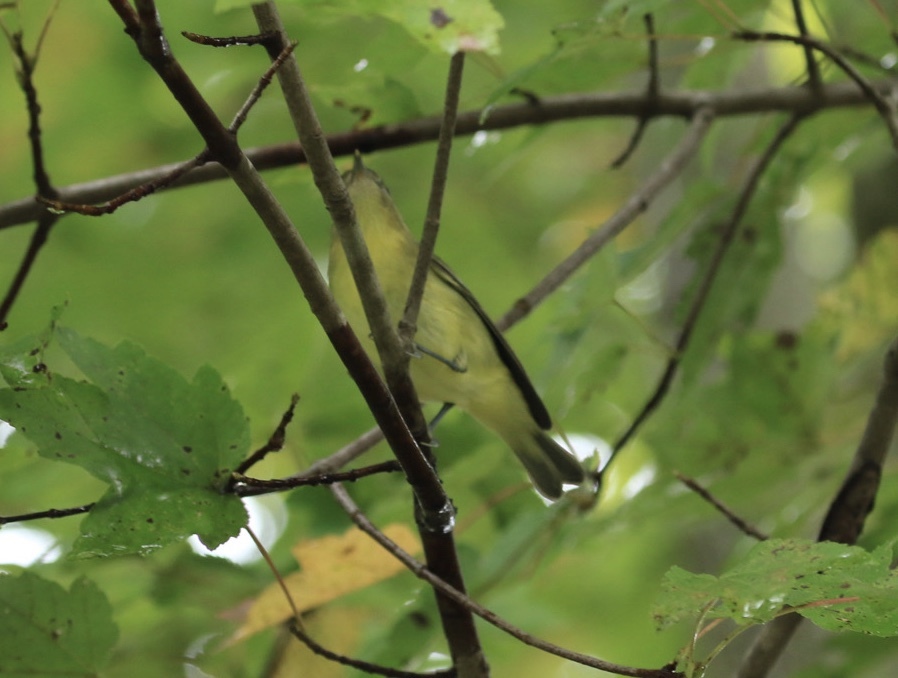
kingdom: Animalia
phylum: Chordata
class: Aves
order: Passeriformes
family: Vireonidae
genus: Vireo
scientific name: Vireo philadelphicus
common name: Philadelphia vireo
